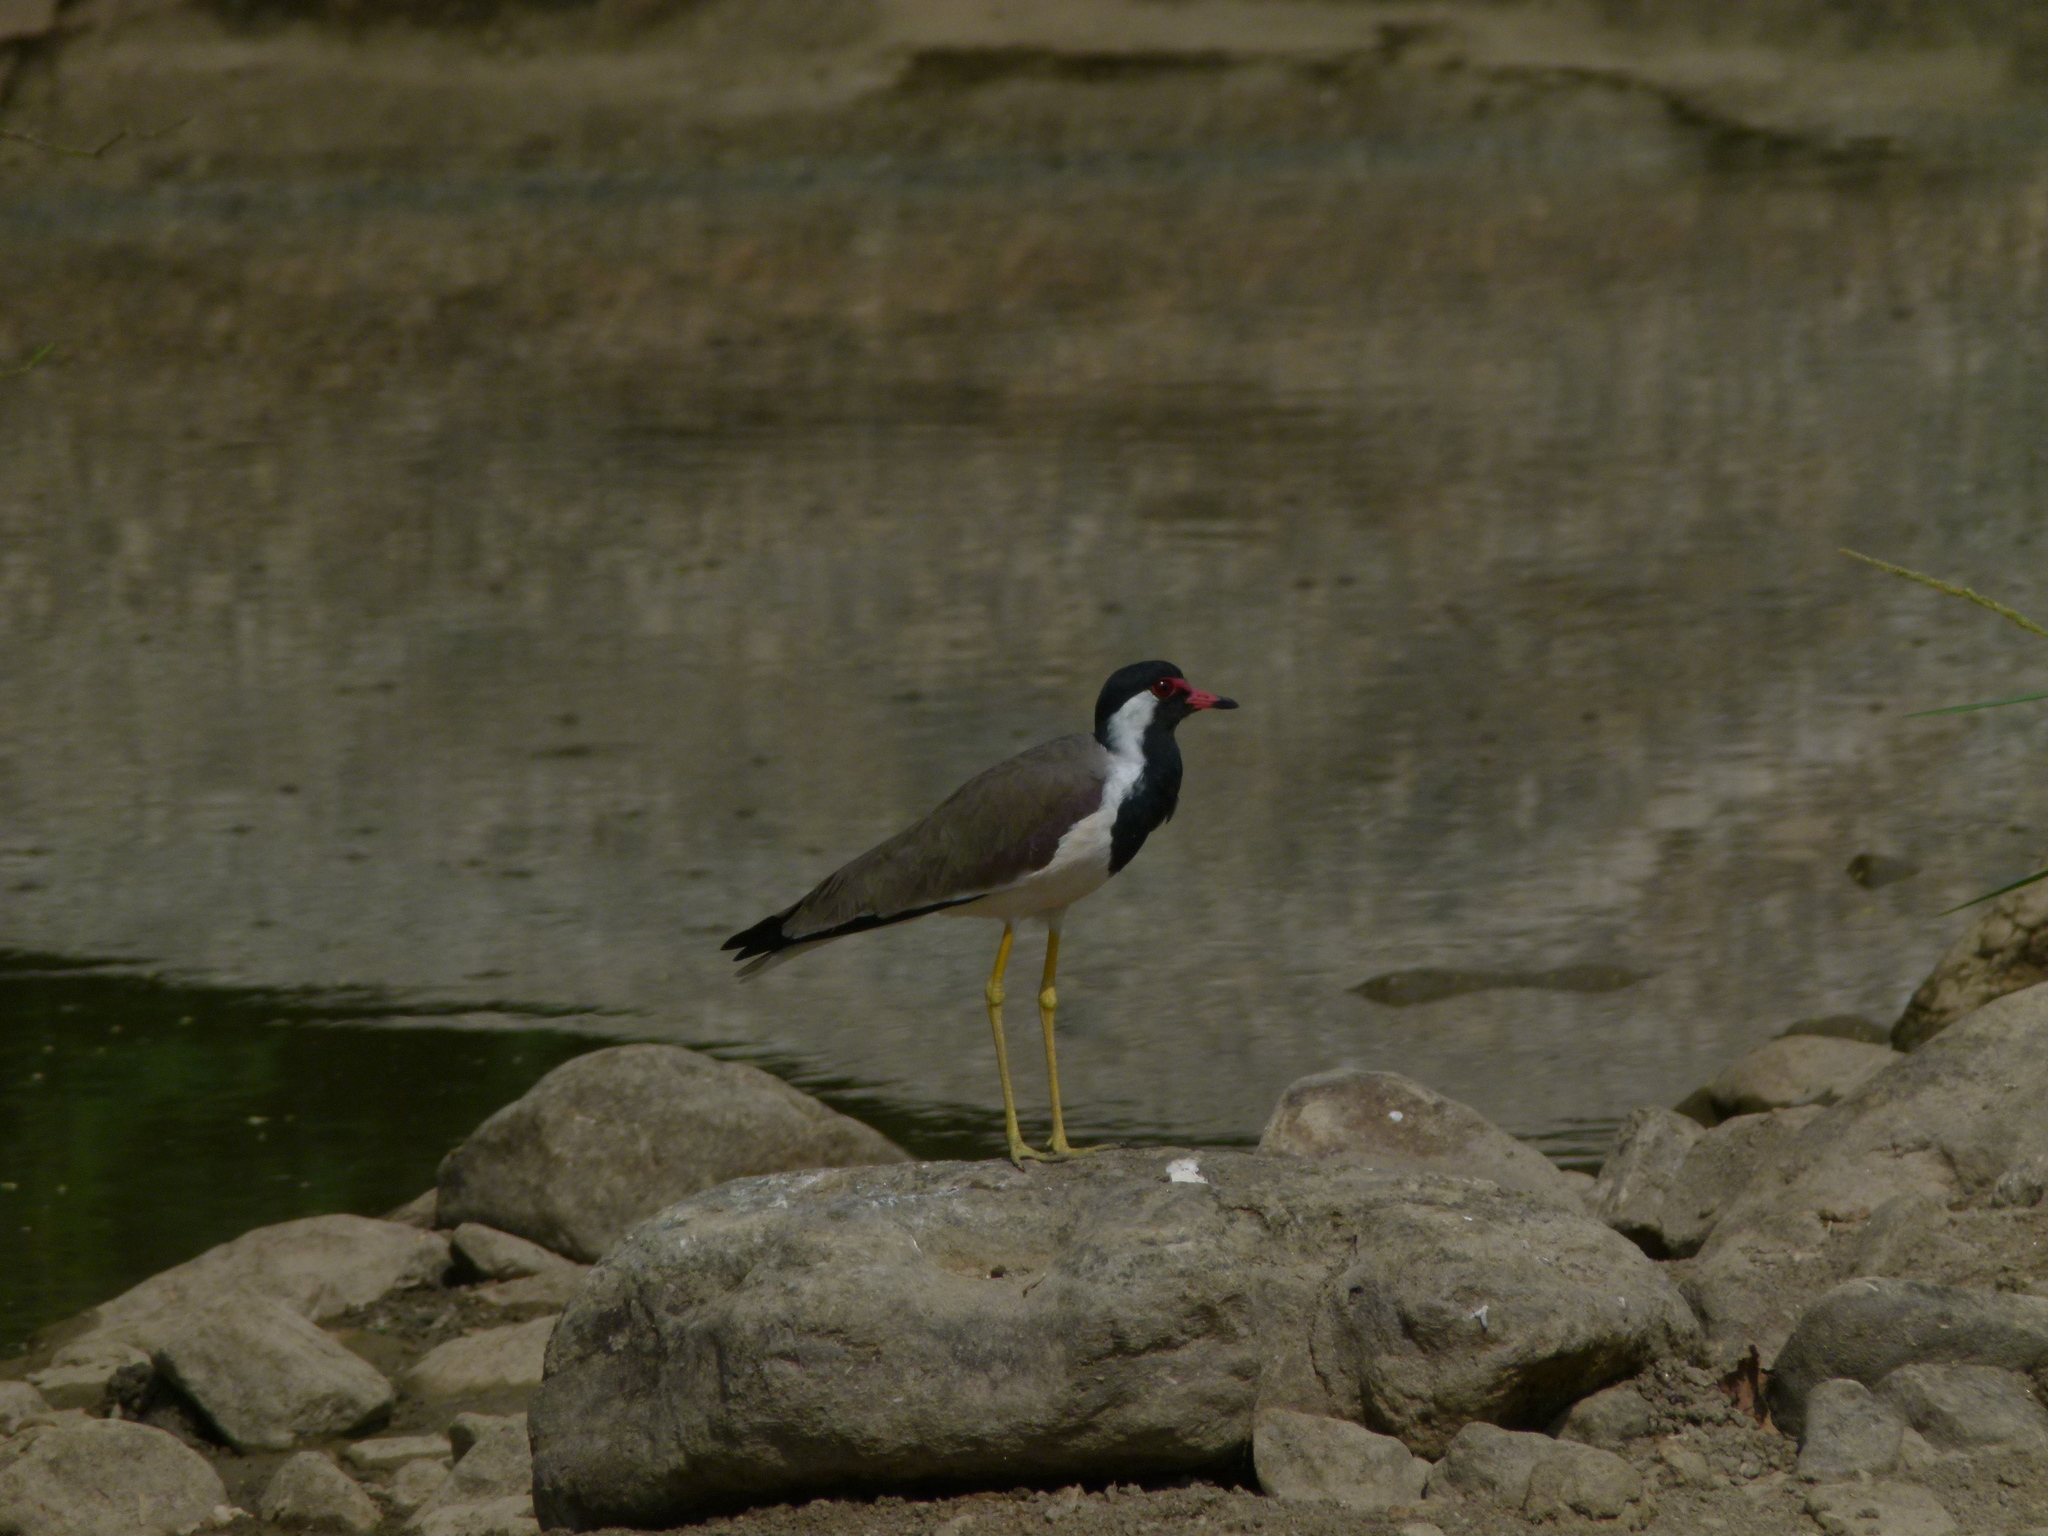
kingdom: Animalia
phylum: Chordata
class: Aves
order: Charadriiformes
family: Charadriidae
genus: Vanellus
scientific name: Vanellus indicus
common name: Red-wattled lapwing
